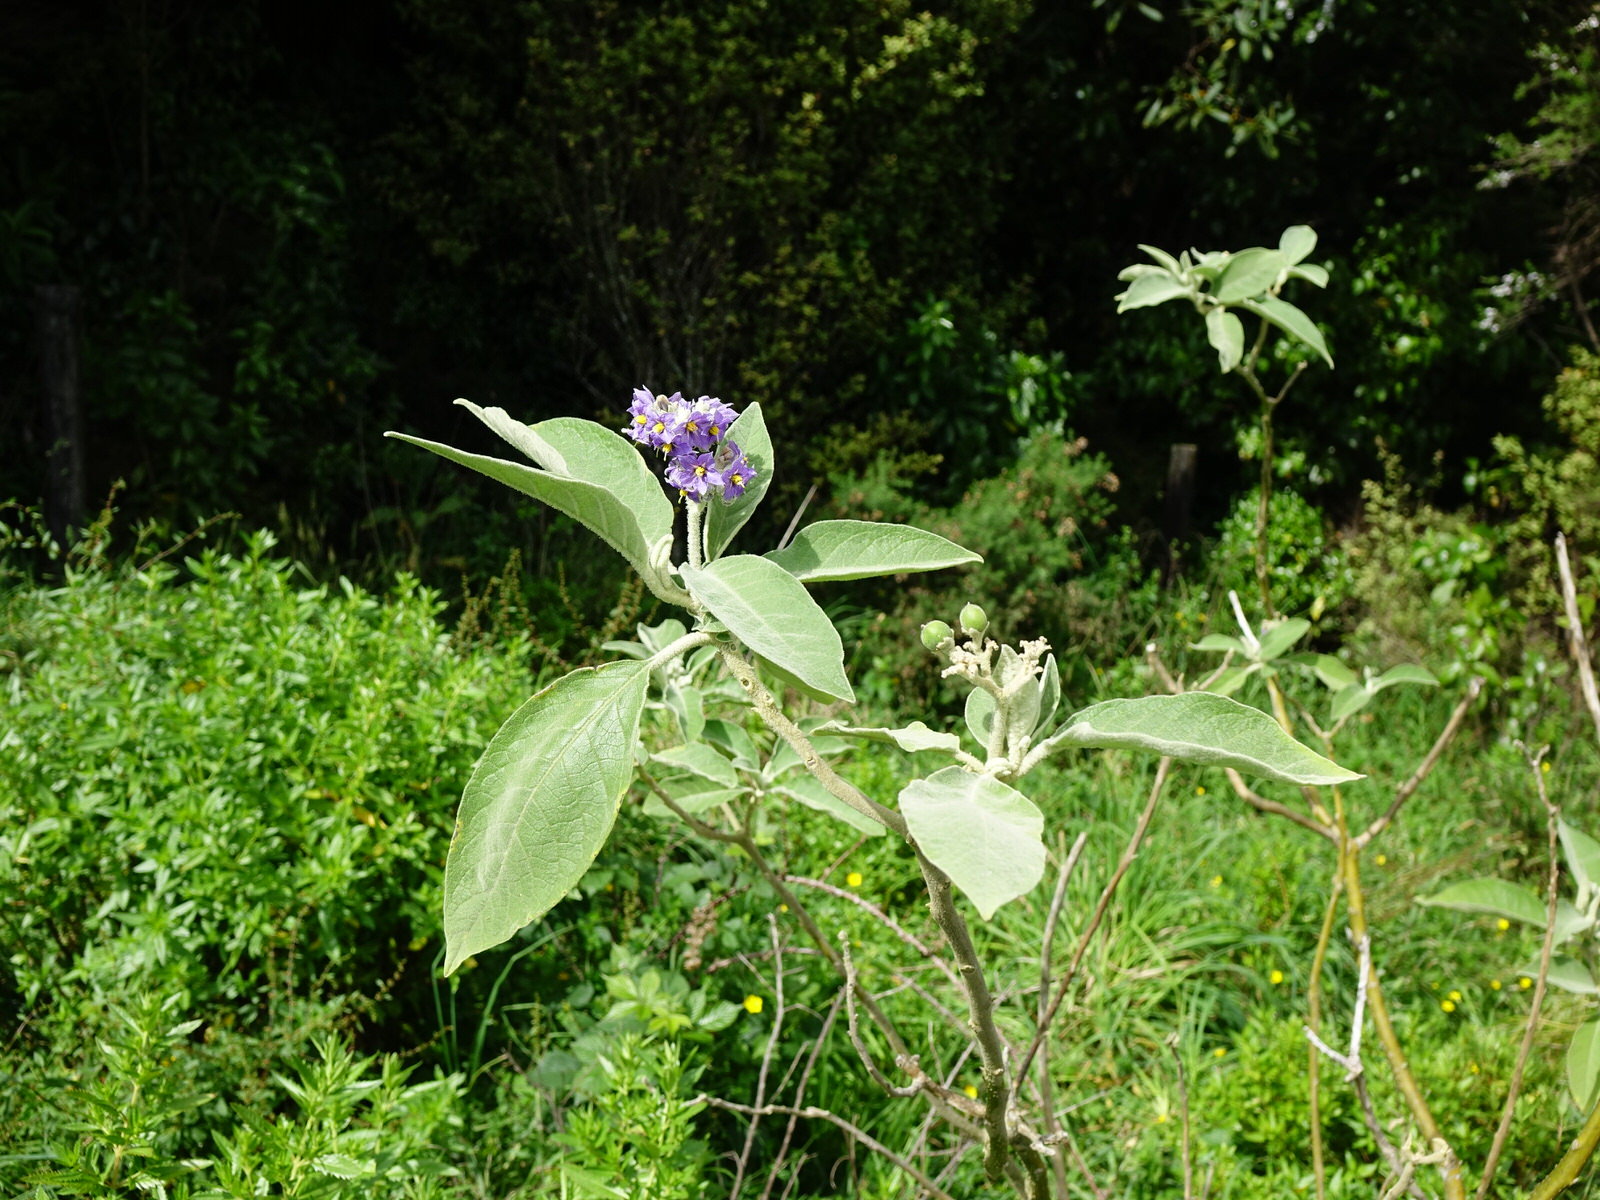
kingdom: Plantae
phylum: Tracheophyta
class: Magnoliopsida
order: Solanales
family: Solanaceae
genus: Solanum
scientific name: Solanum mauritianum
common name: Earleaf nightshade
